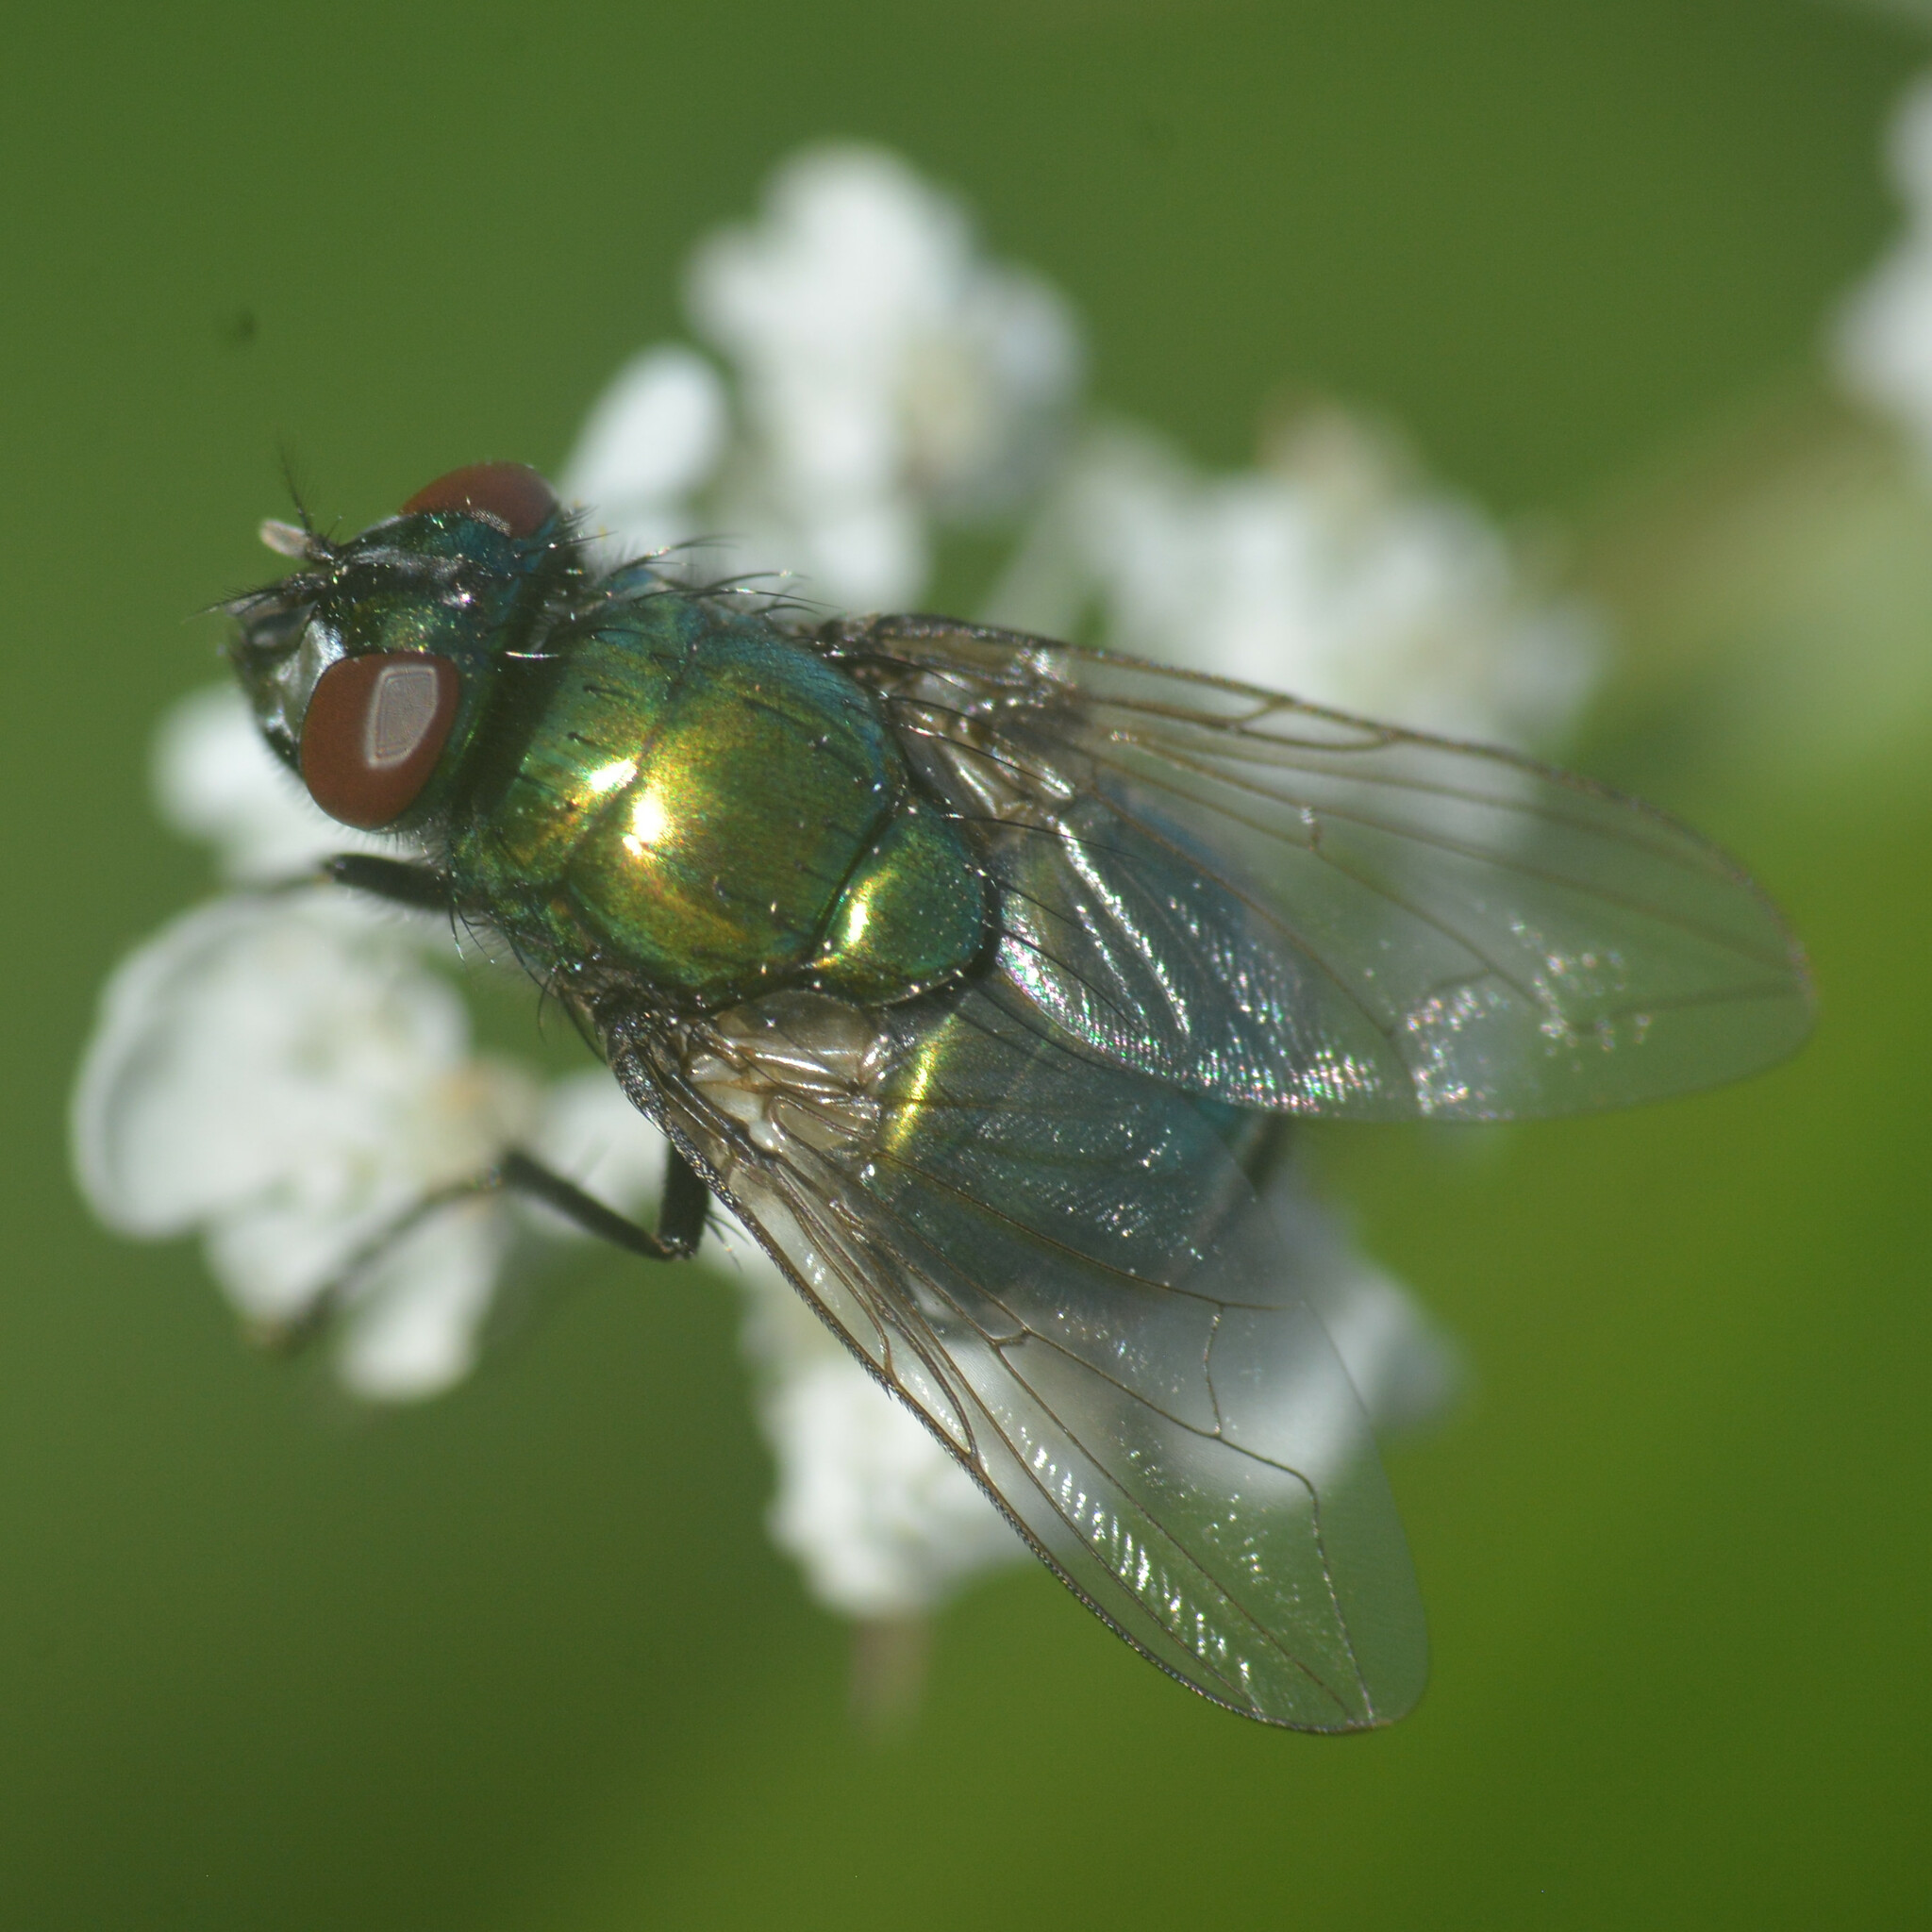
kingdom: Animalia
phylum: Arthropoda
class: Insecta
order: Diptera
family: Muscidae
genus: Neomyia
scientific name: Neomyia cornicina
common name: House fly
